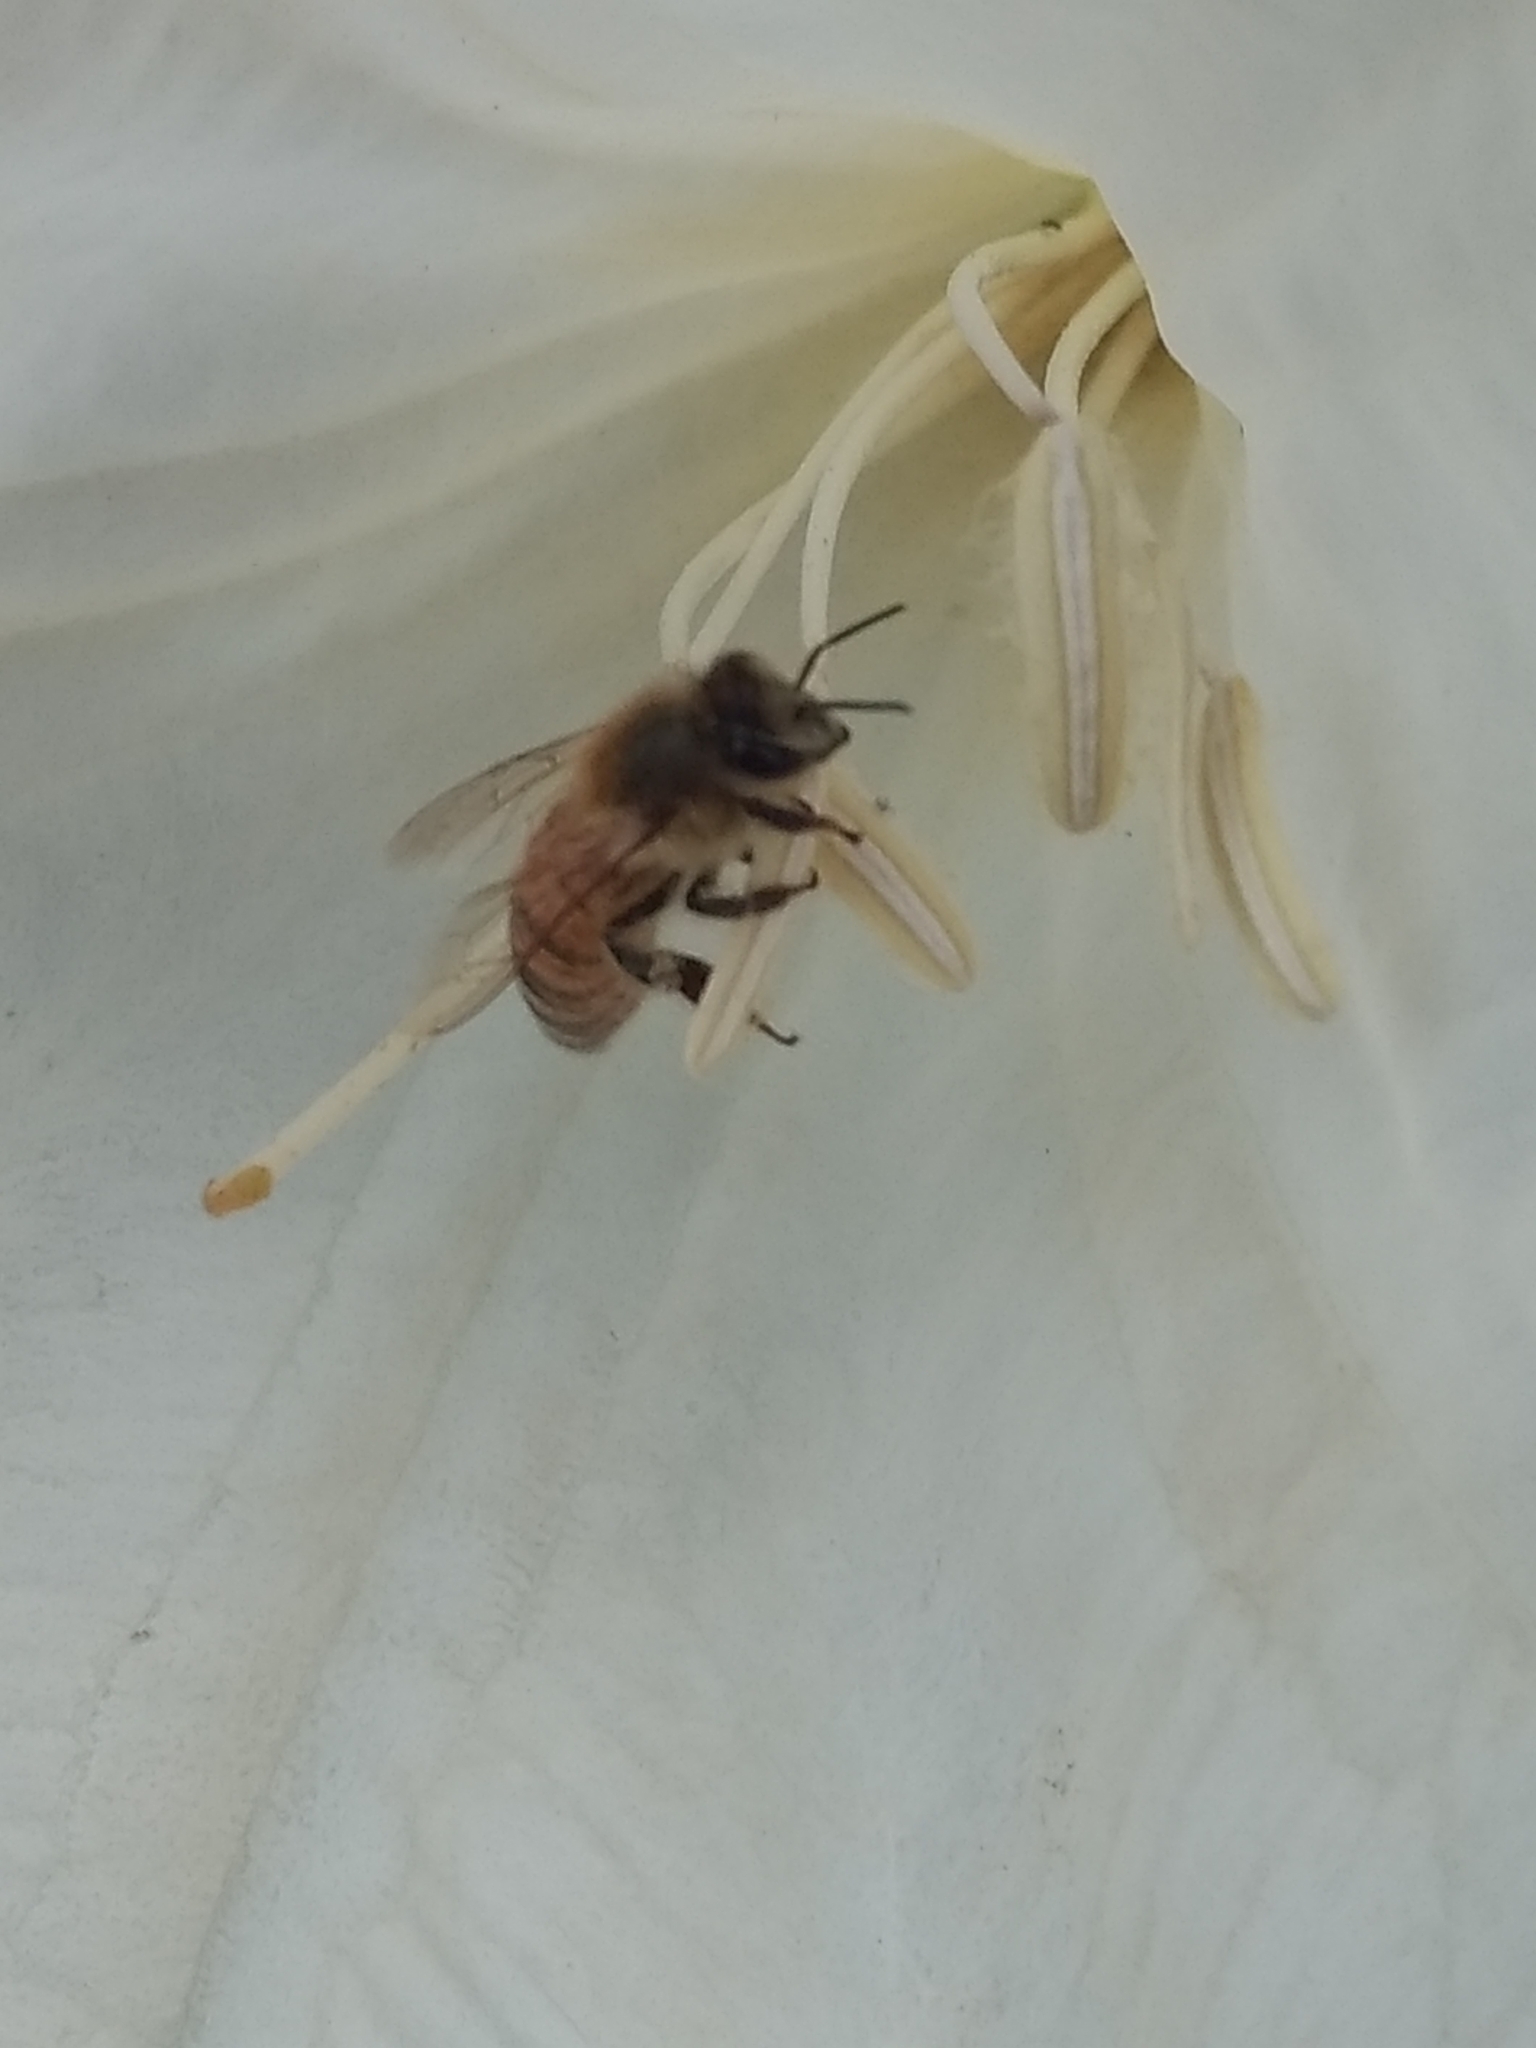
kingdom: Animalia
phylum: Arthropoda
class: Insecta
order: Hymenoptera
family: Apidae
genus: Apis
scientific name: Apis mellifera
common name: Honey bee
